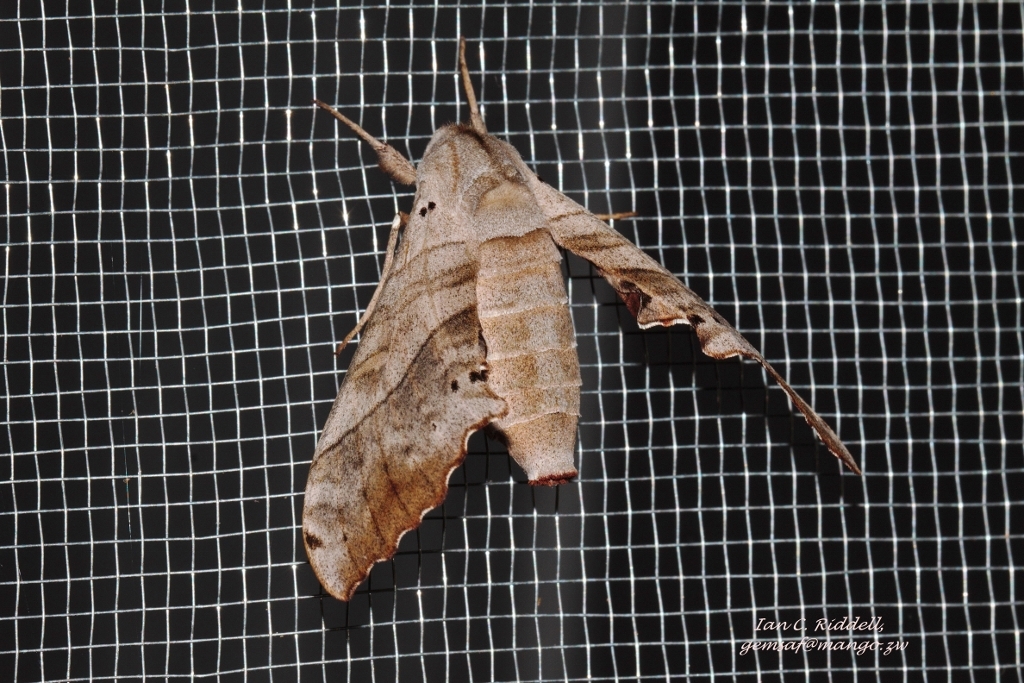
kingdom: Animalia
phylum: Arthropoda
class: Insecta
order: Lepidoptera
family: Sphingidae
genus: Rufoclanis
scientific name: Rufoclanis numosae
